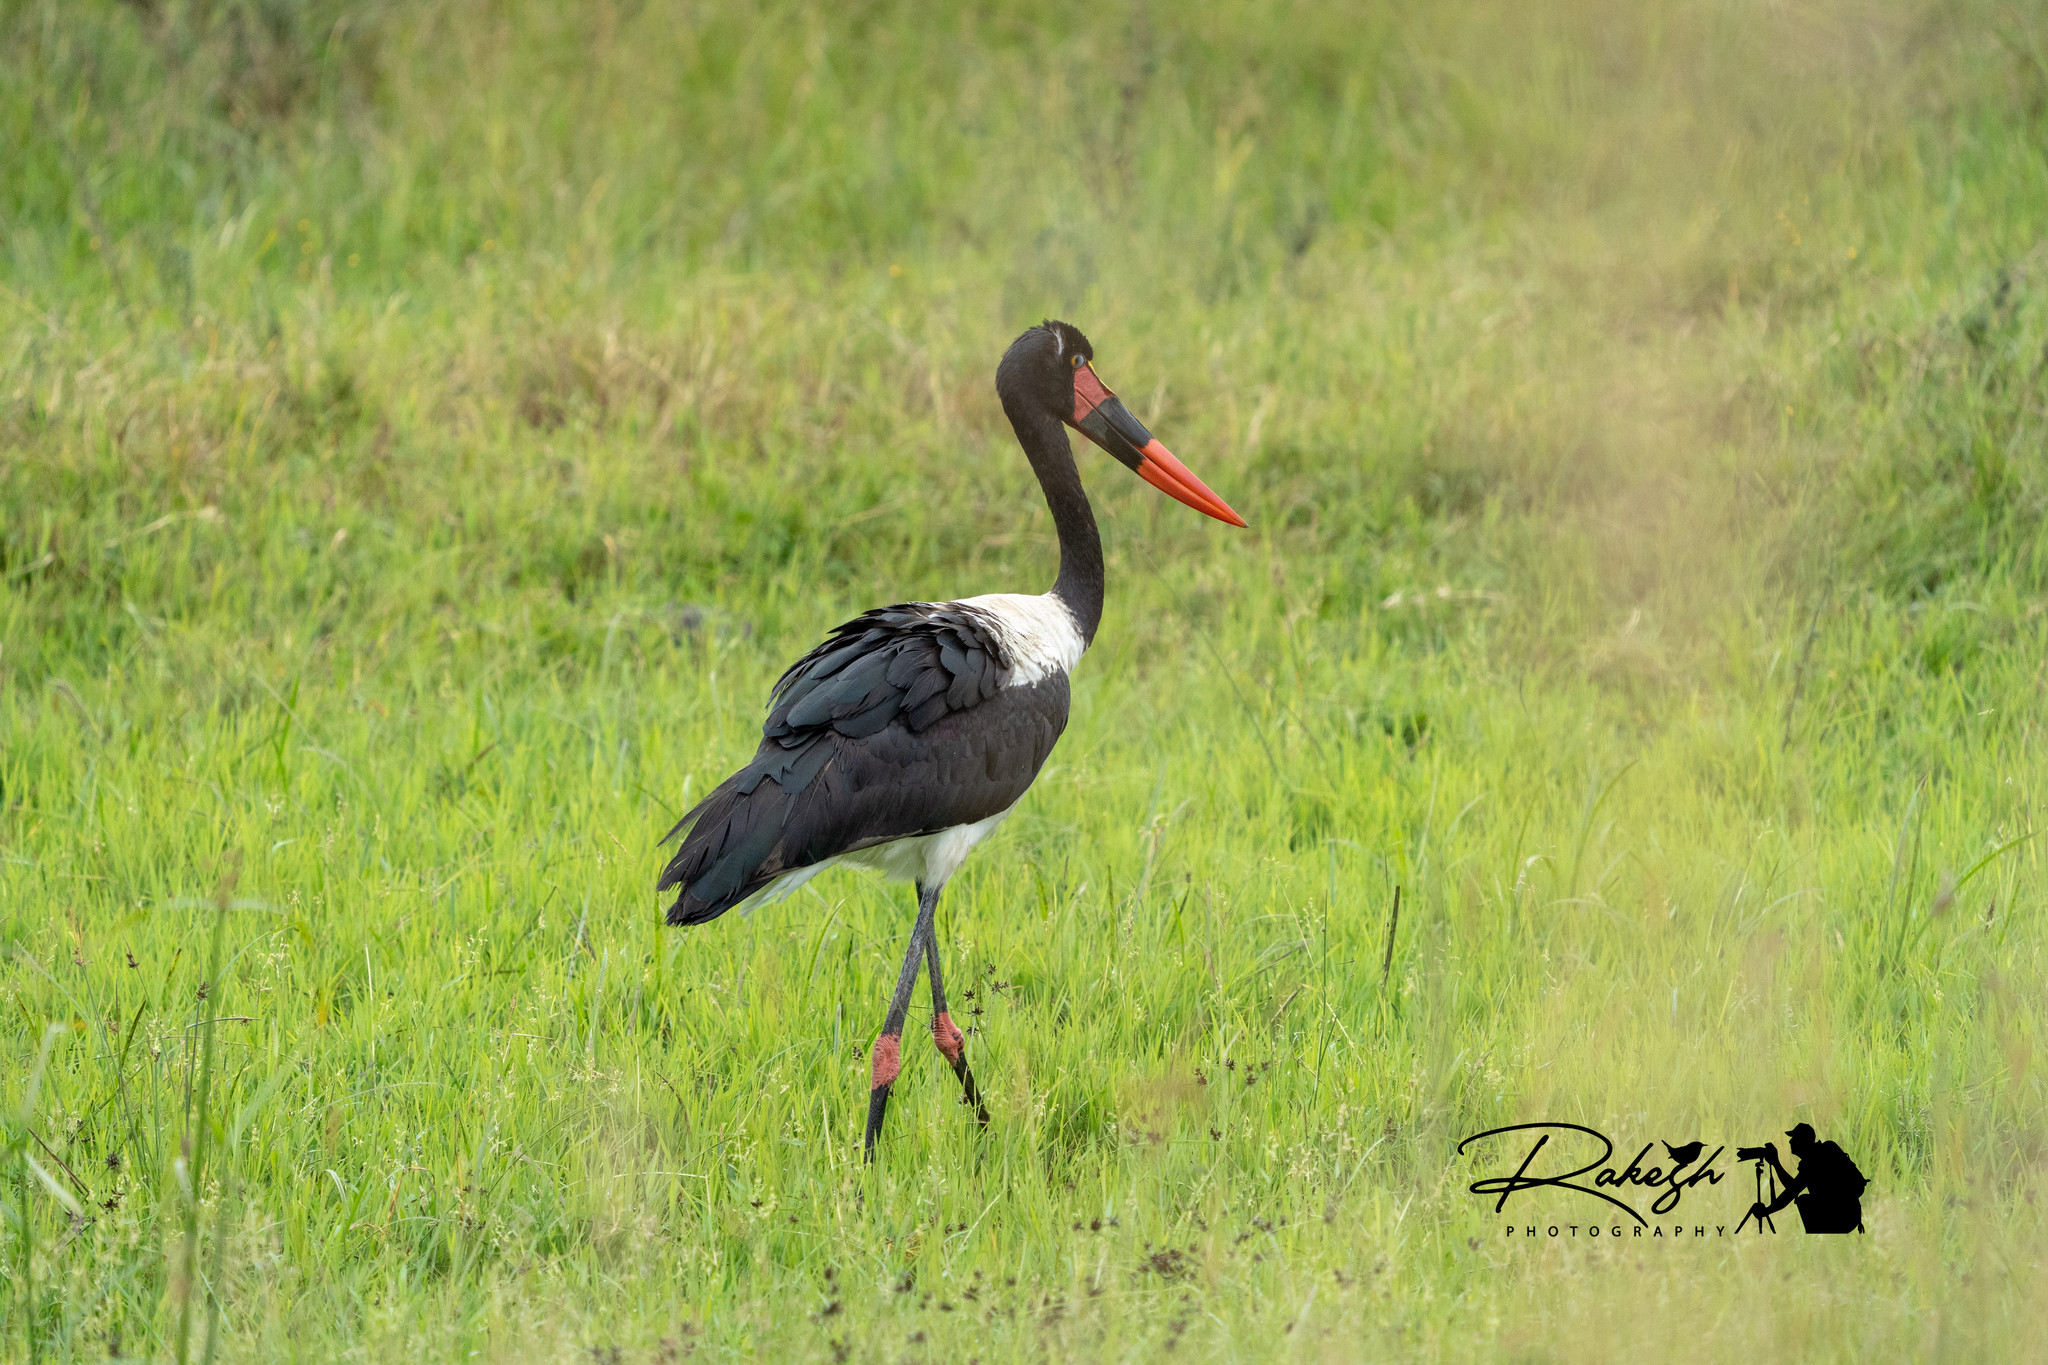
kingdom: Animalia
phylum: Chordata
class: Aves
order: Ciconiiformes
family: Ciconiidae
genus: Ephippiorhynchus
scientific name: Ephippiorhynchus senegalensis
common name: Saddle-billed stork
